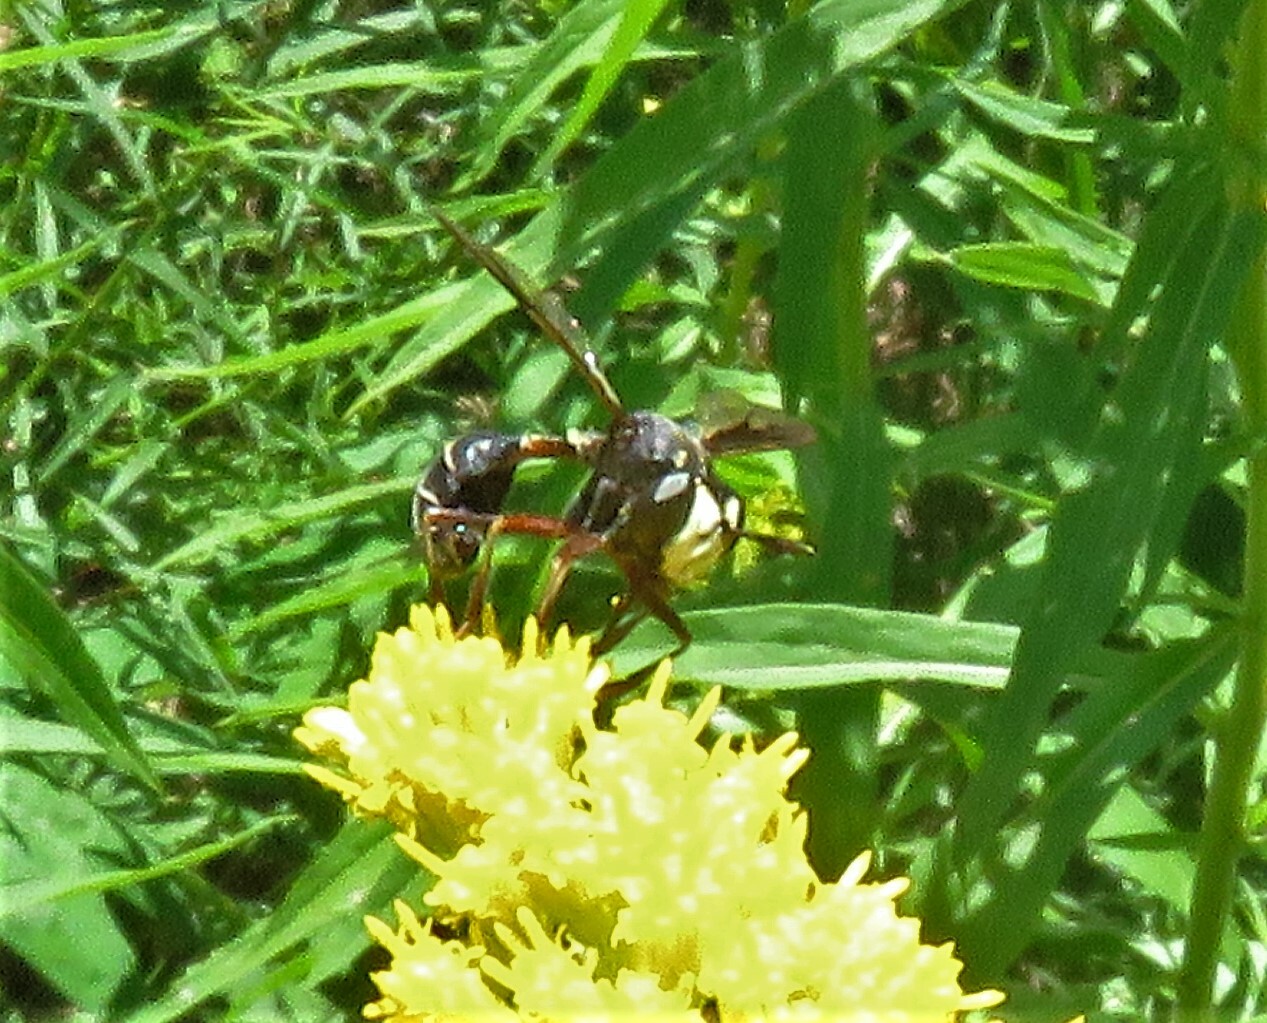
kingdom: Animalia
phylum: Arthropoda
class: Insecta
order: Diptera
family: Conopidae
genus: Physocephala
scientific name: Physocephala furcillata
